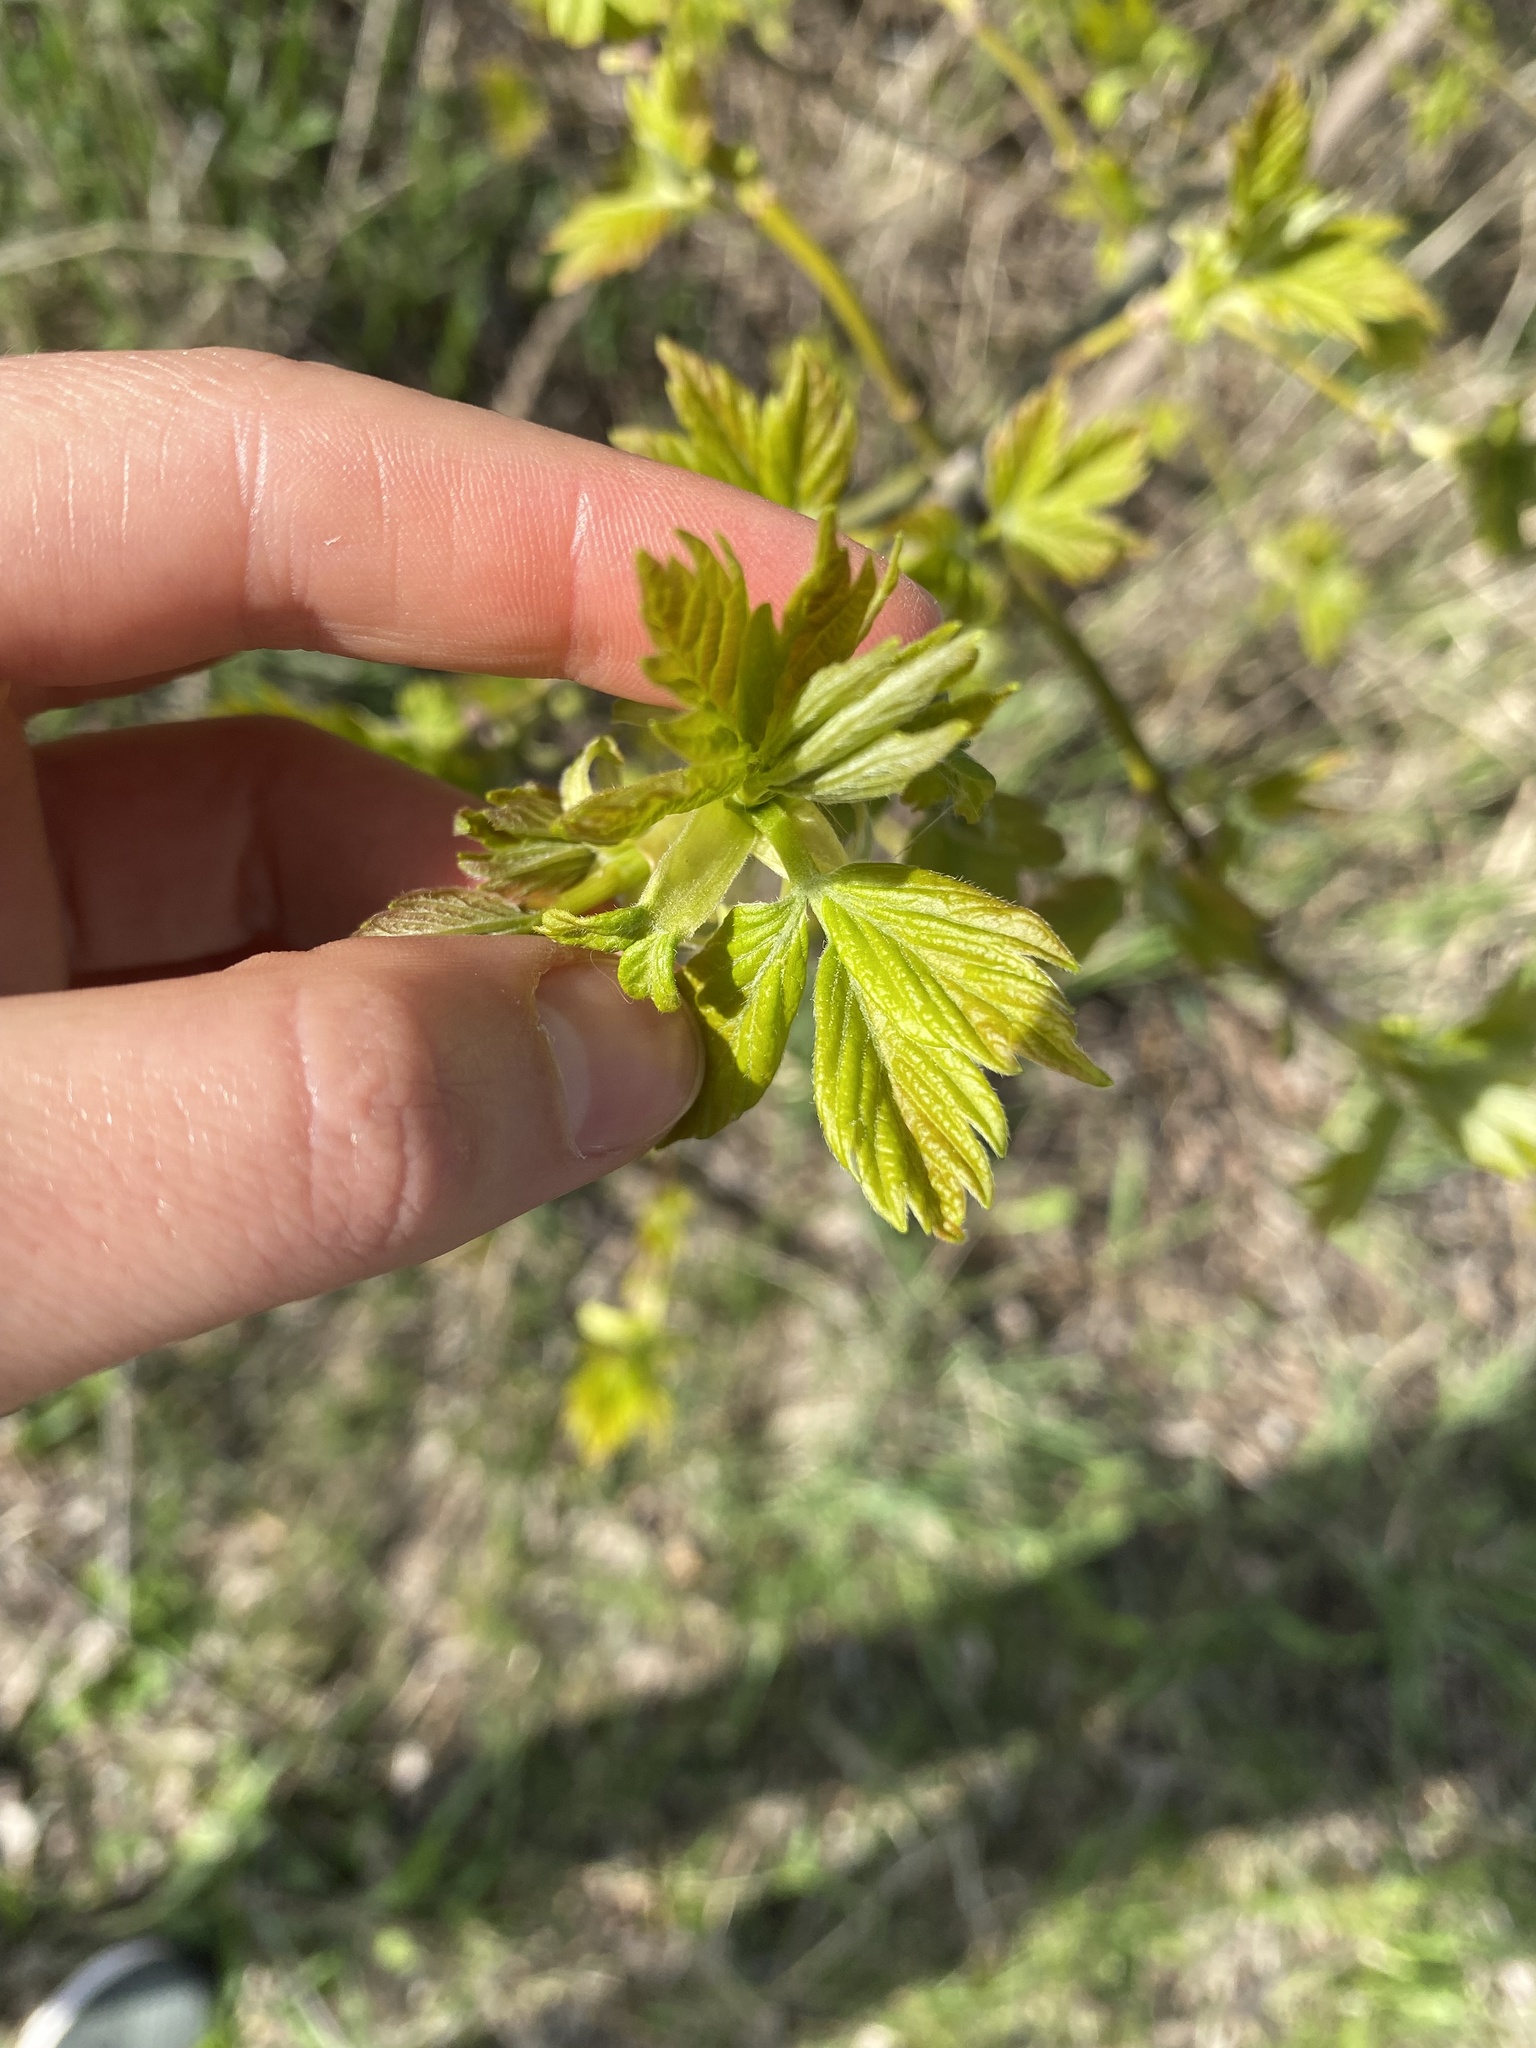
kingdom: Plantae
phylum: Tracheophyta
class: Magnoliopsida
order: Sapindales
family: Sapindaceae
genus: Acer
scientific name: Acer negundo
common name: Ashleaf maple
